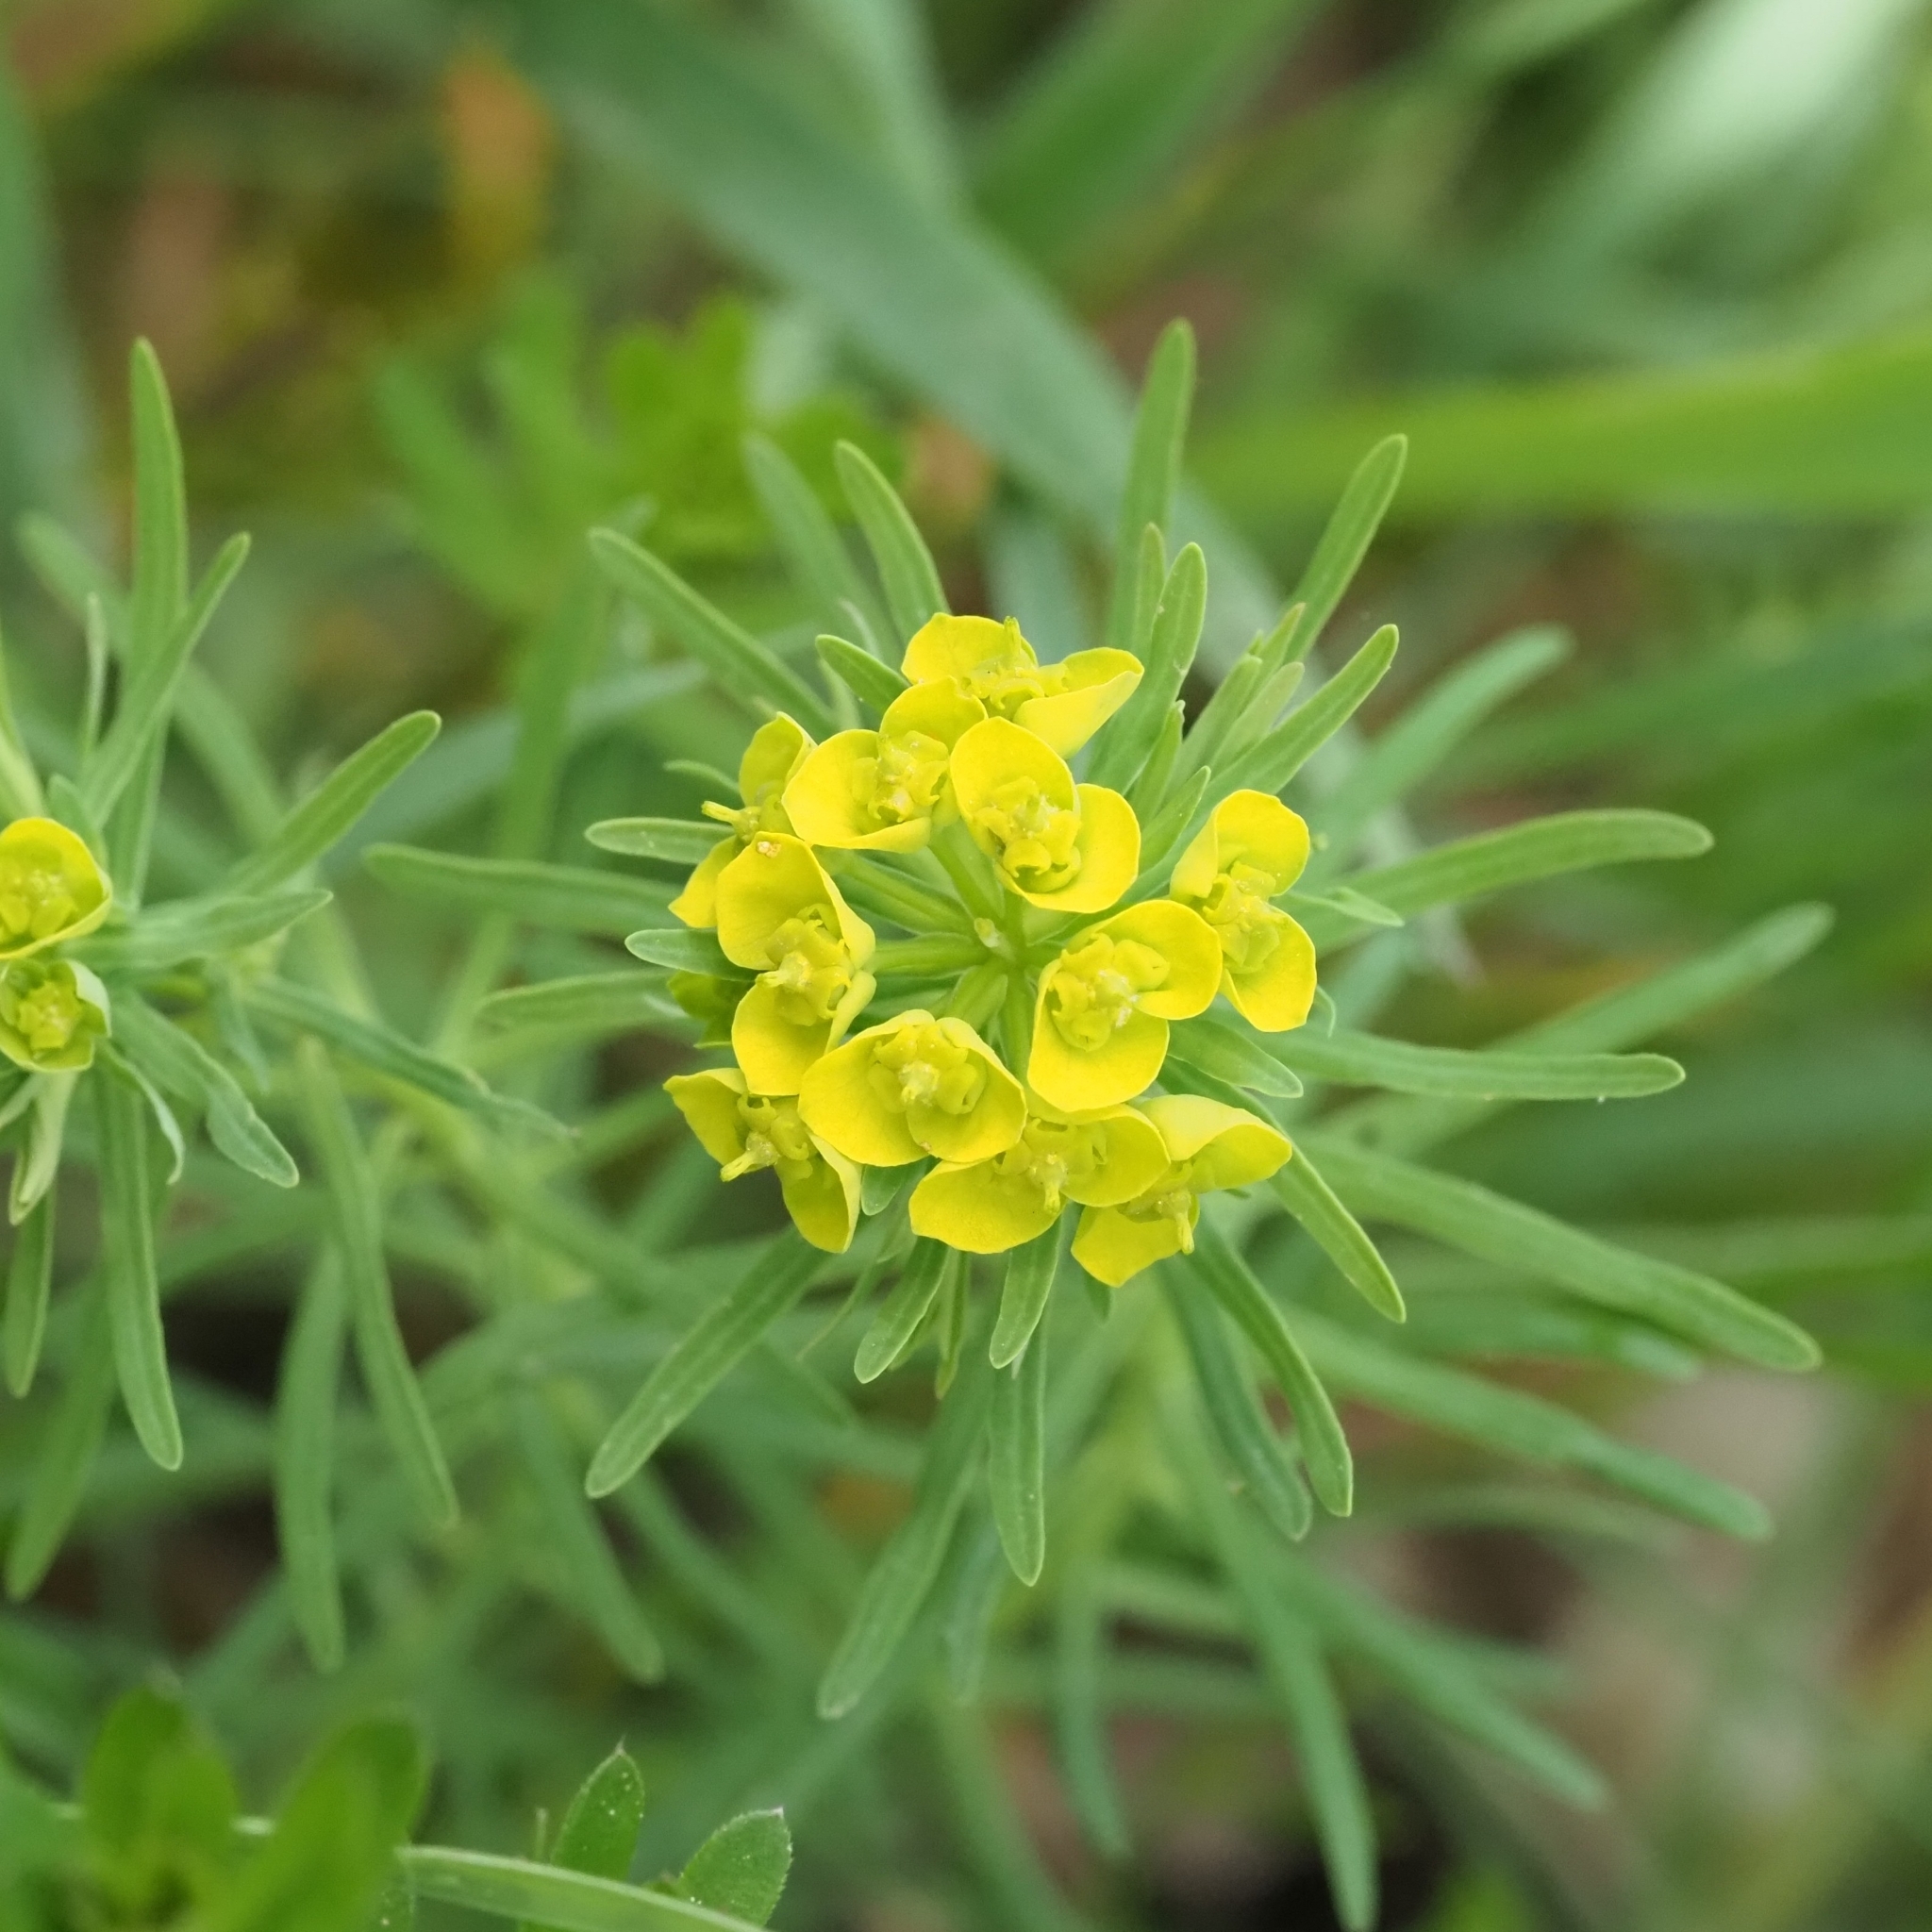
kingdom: Plantae
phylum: Tracheophyta
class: Magnoliopsida
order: Malpighiales
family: Euphorbiaceae
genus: Euphorbia
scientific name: Euphorbia cyparissias
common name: Cypress spurge
